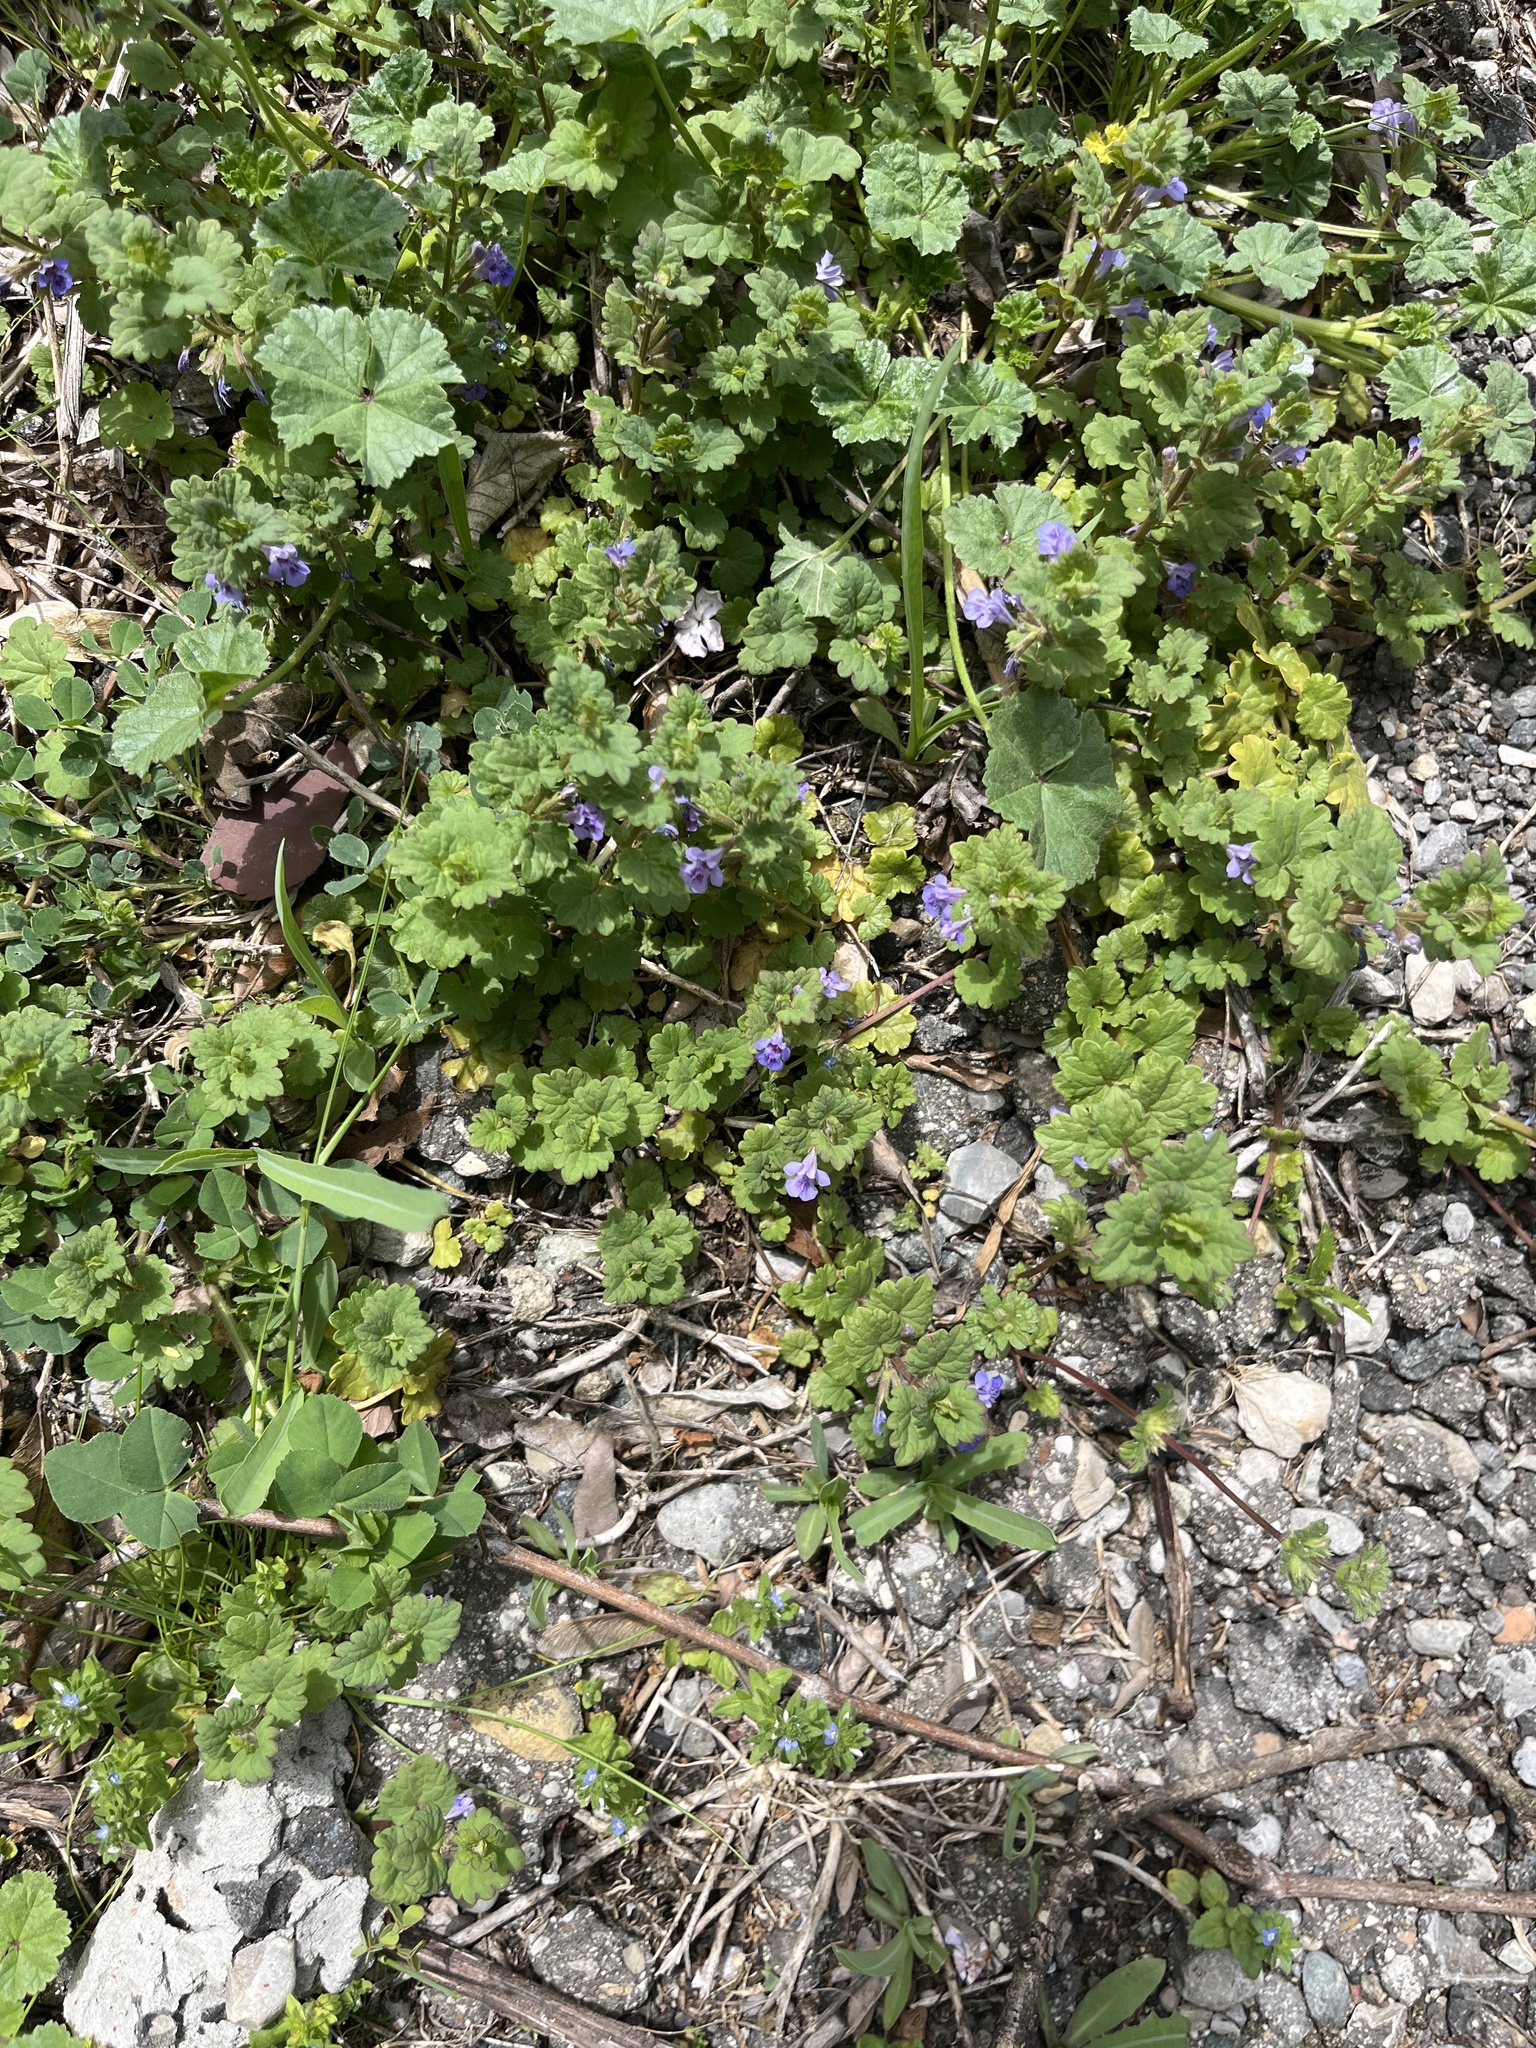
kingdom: Plantae
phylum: Tracheophyta
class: Magnoliopsida
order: Lamiales
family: Lamiaceae
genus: Glechoma
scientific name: Glechoma hederacea
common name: Ground ivy
